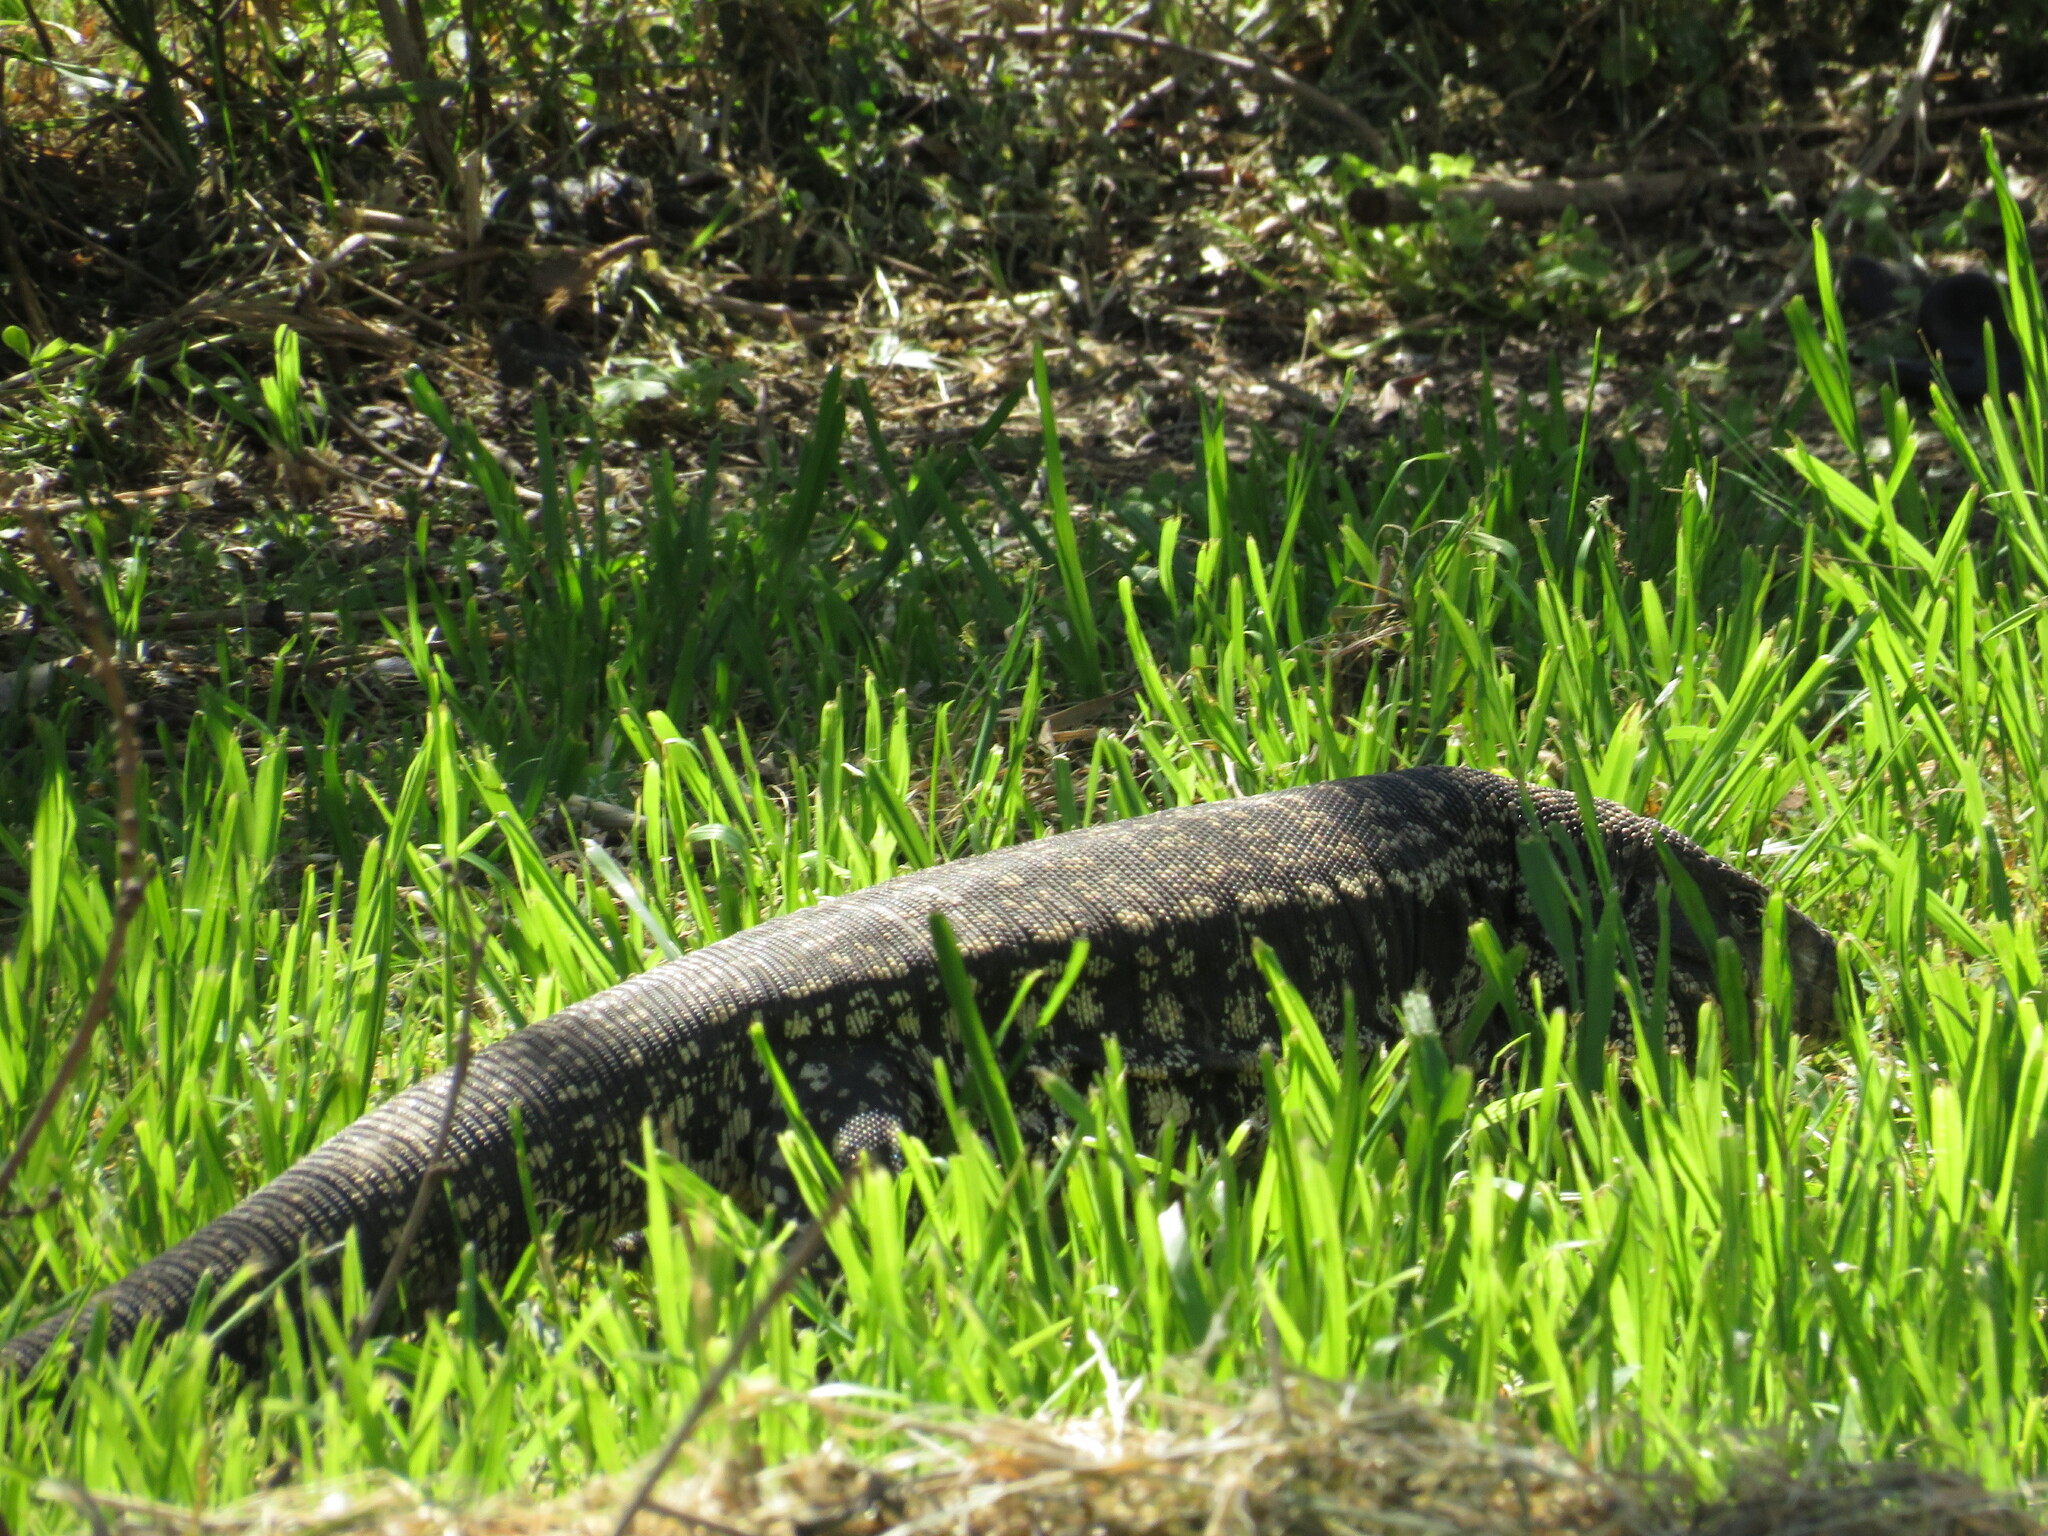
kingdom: Animalia
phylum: Chordata
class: Squamata
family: Teiidae
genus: Salvator
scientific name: Salvator merianae
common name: Argentine black and white tegu
